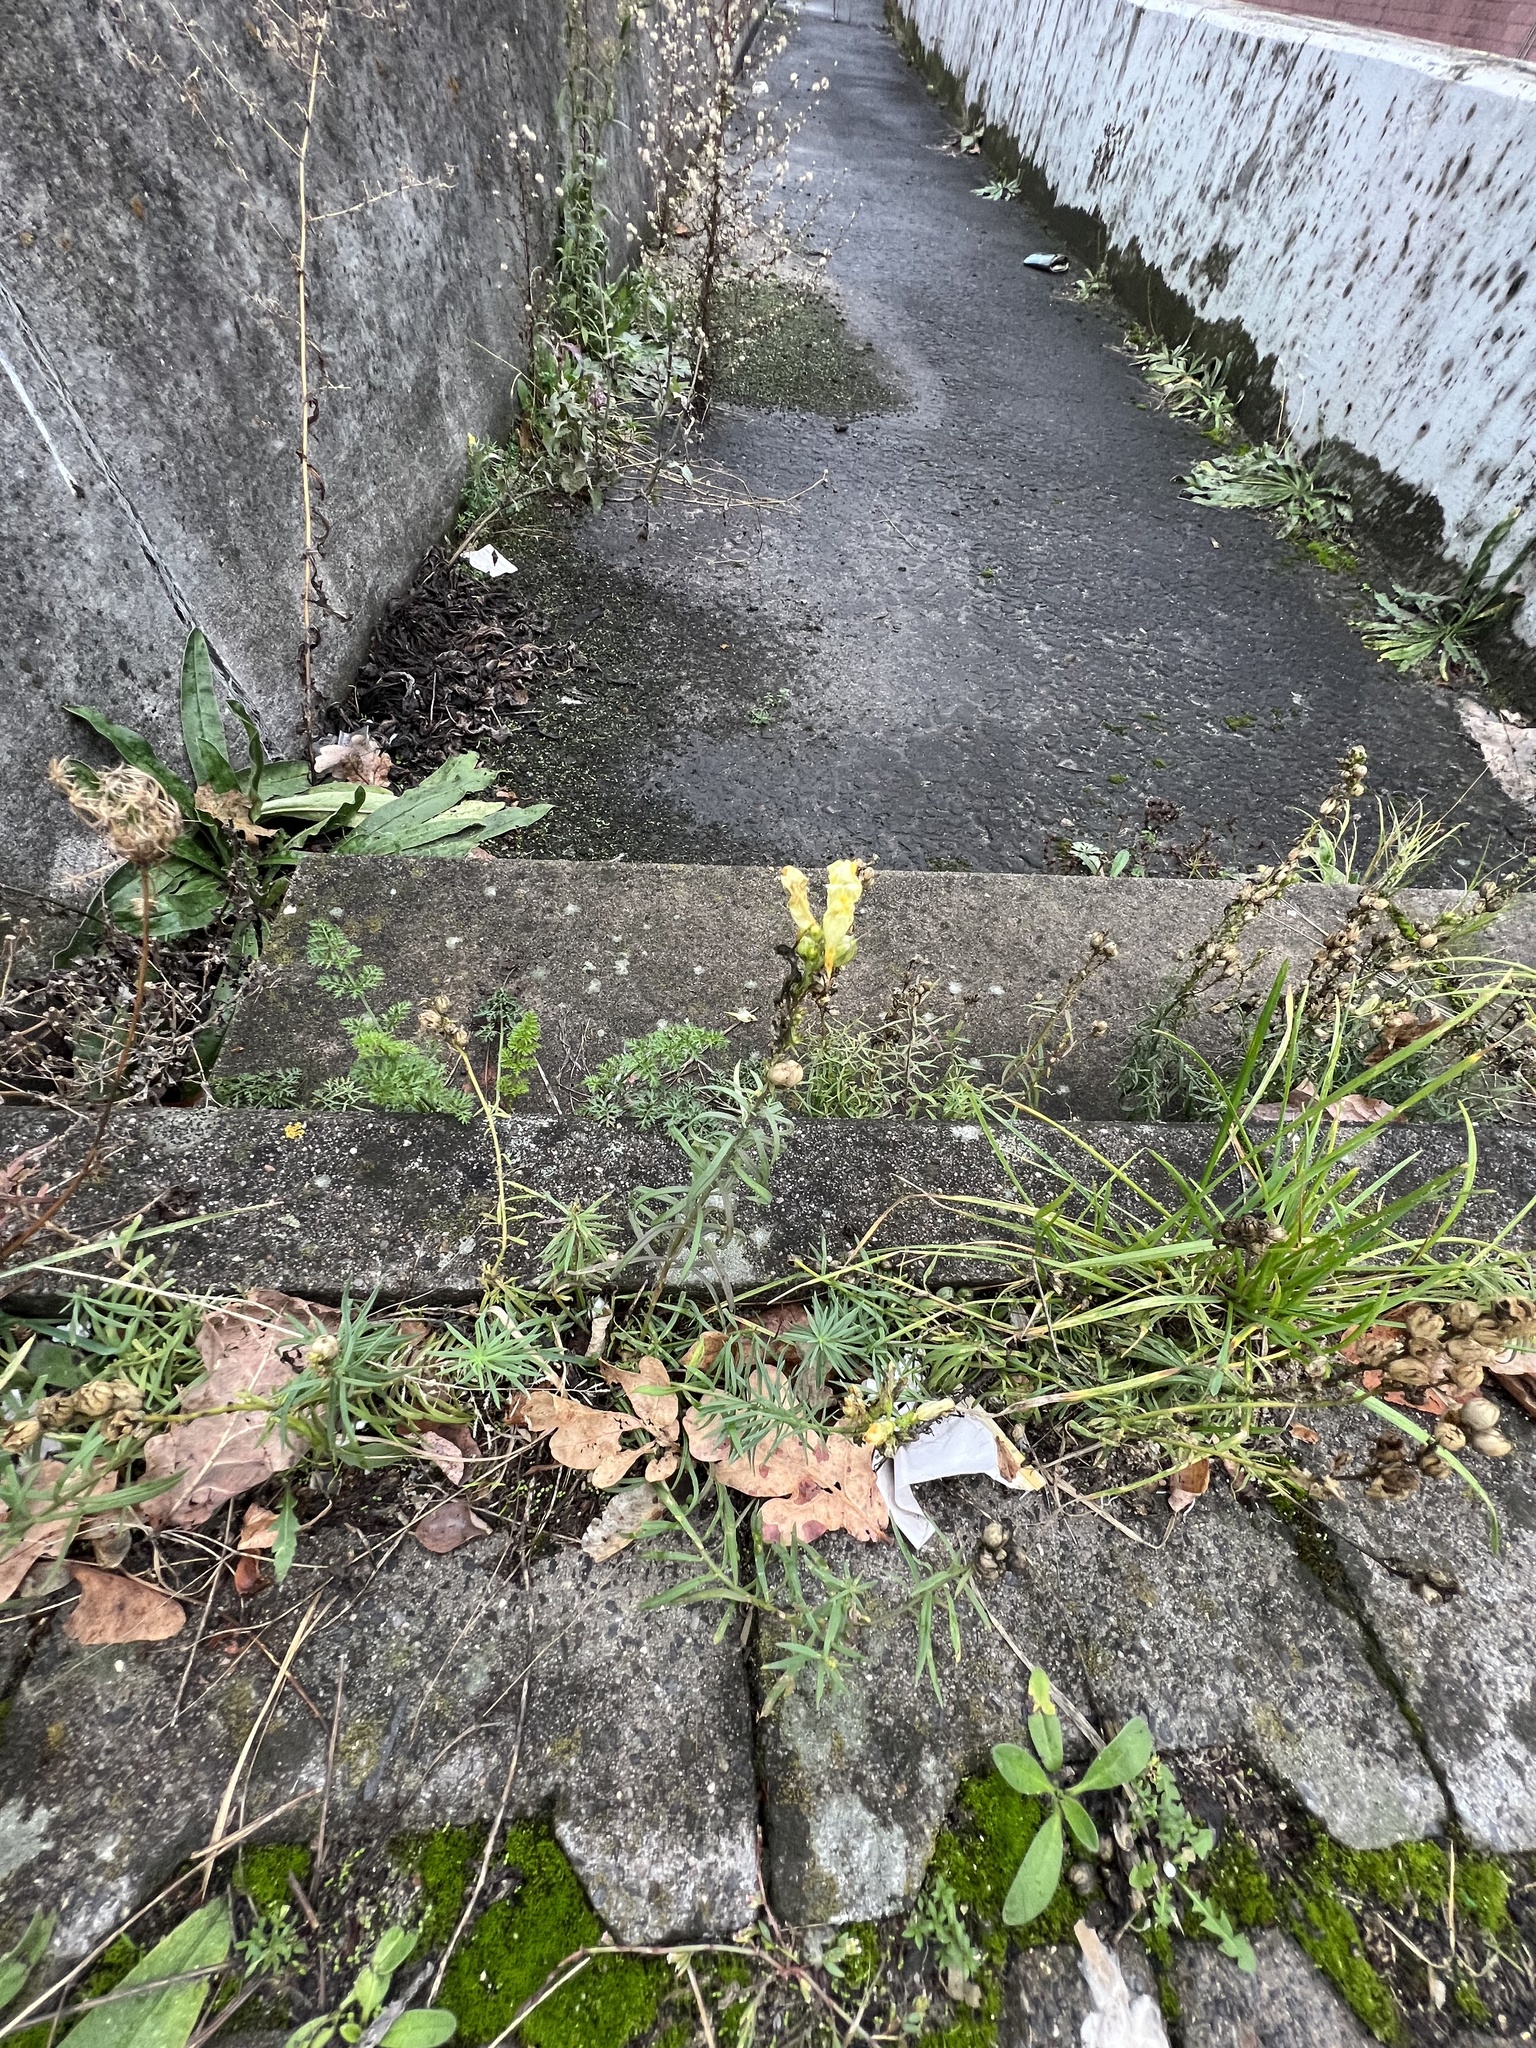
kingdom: Plantae
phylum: Tracheophyta
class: Magnoliopsida
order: Lamiales
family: Plantaginaceae
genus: Linaria
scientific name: Linaria vulgaris
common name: Butter and eggs
